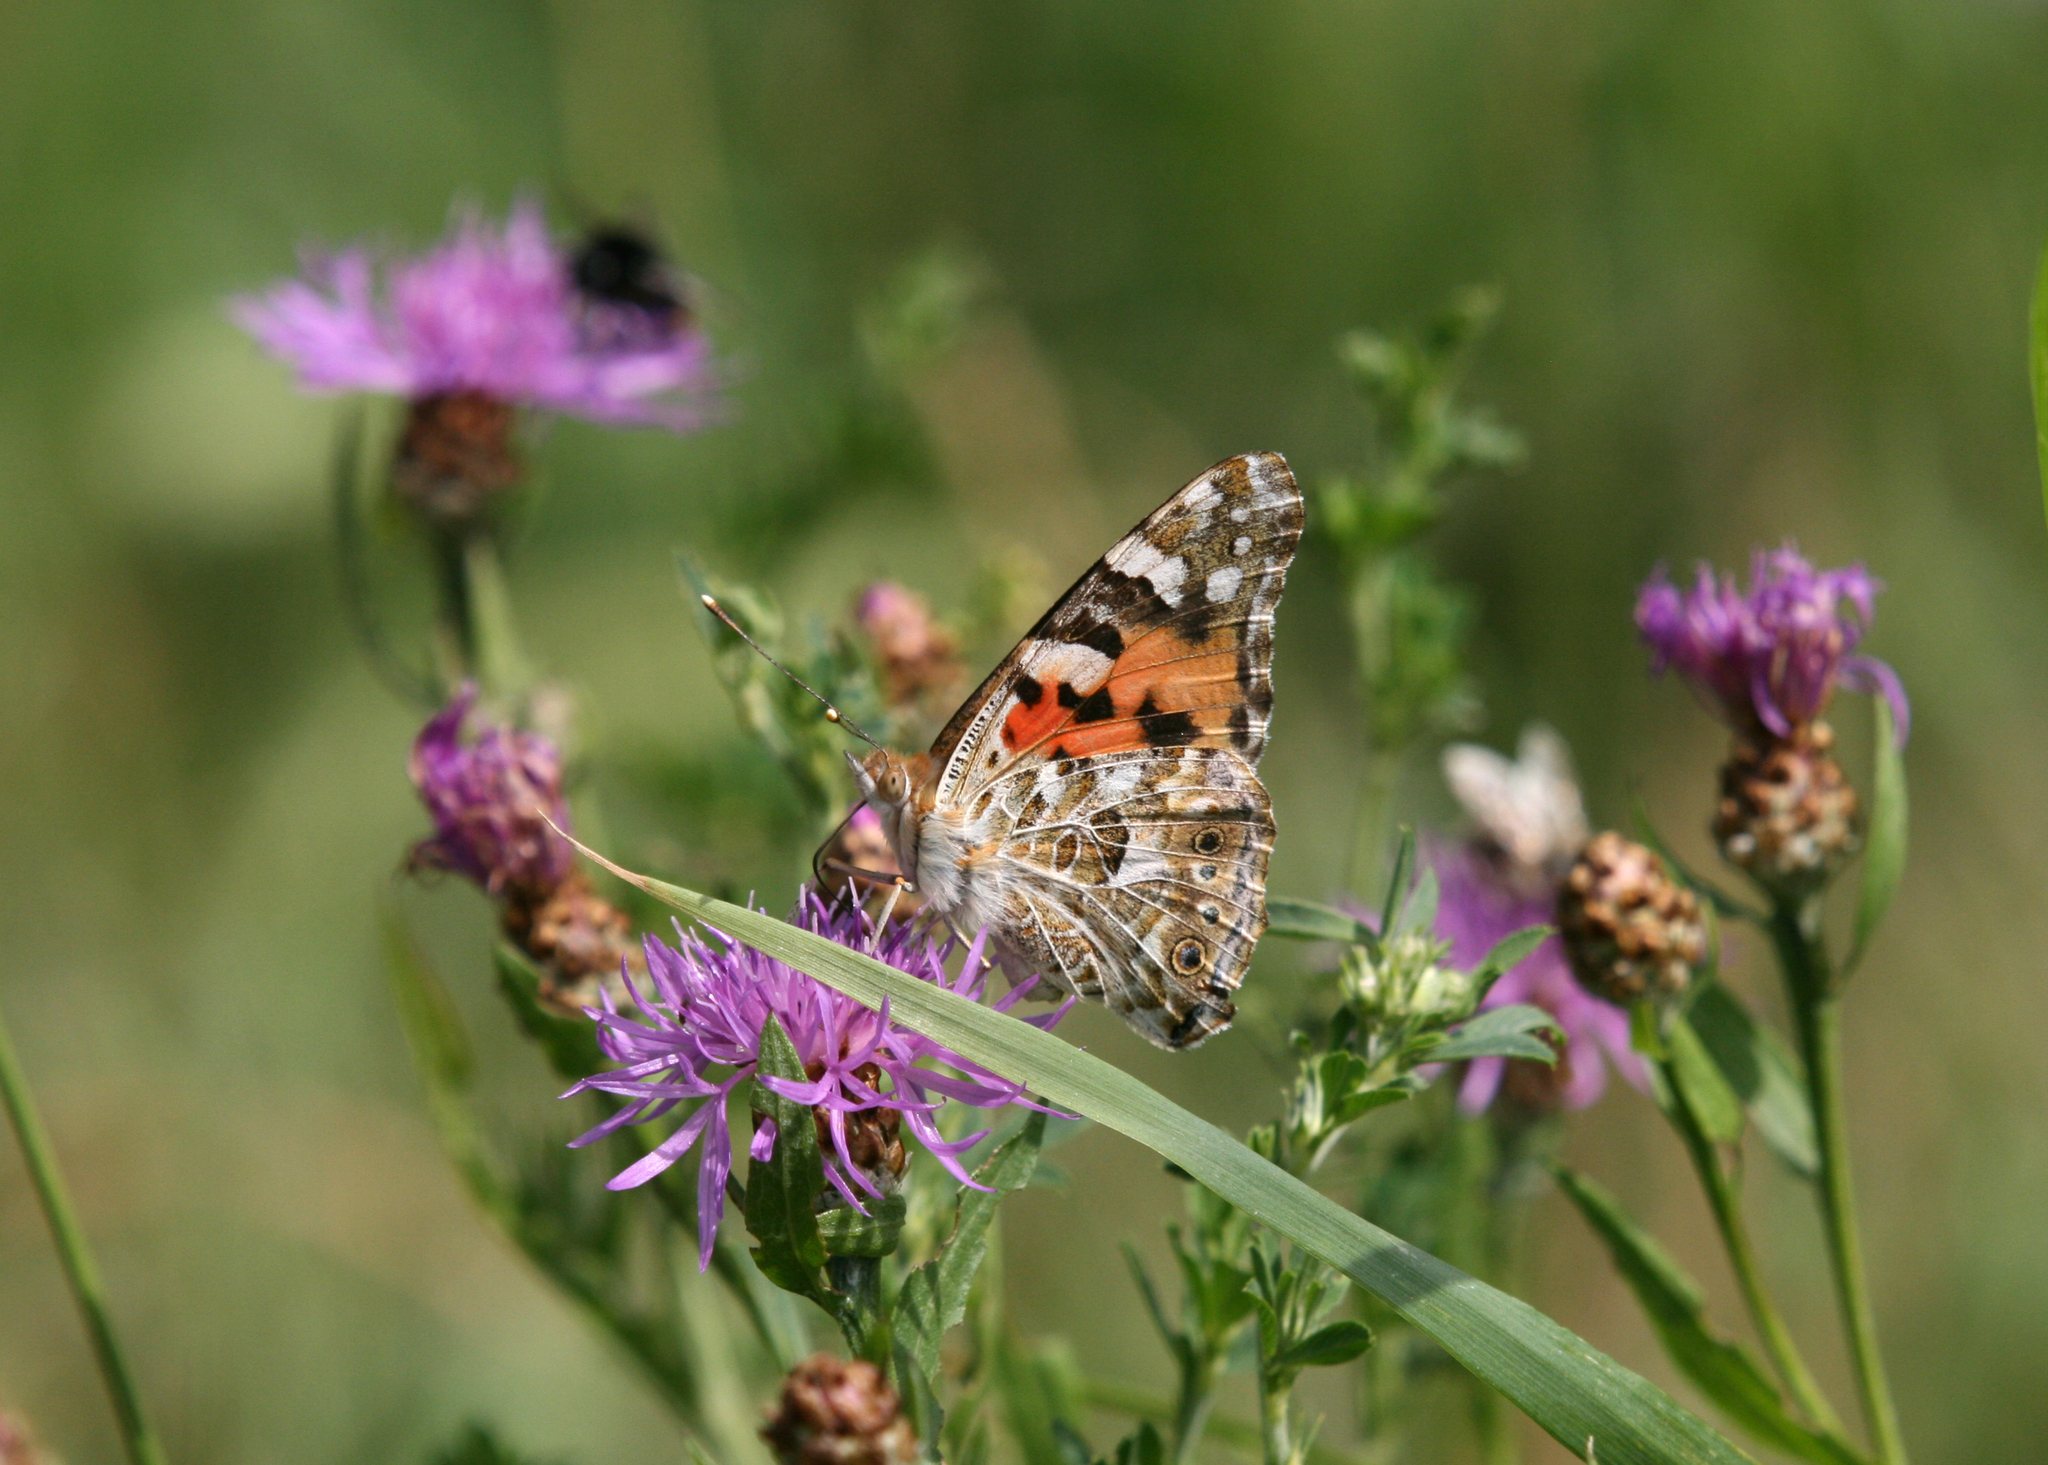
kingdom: Animalia
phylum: Arthropoda
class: Insecta
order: Lepidoptera
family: Nymphalidae
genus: Vanessa
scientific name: Vanessa cardui
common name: Painted lady
